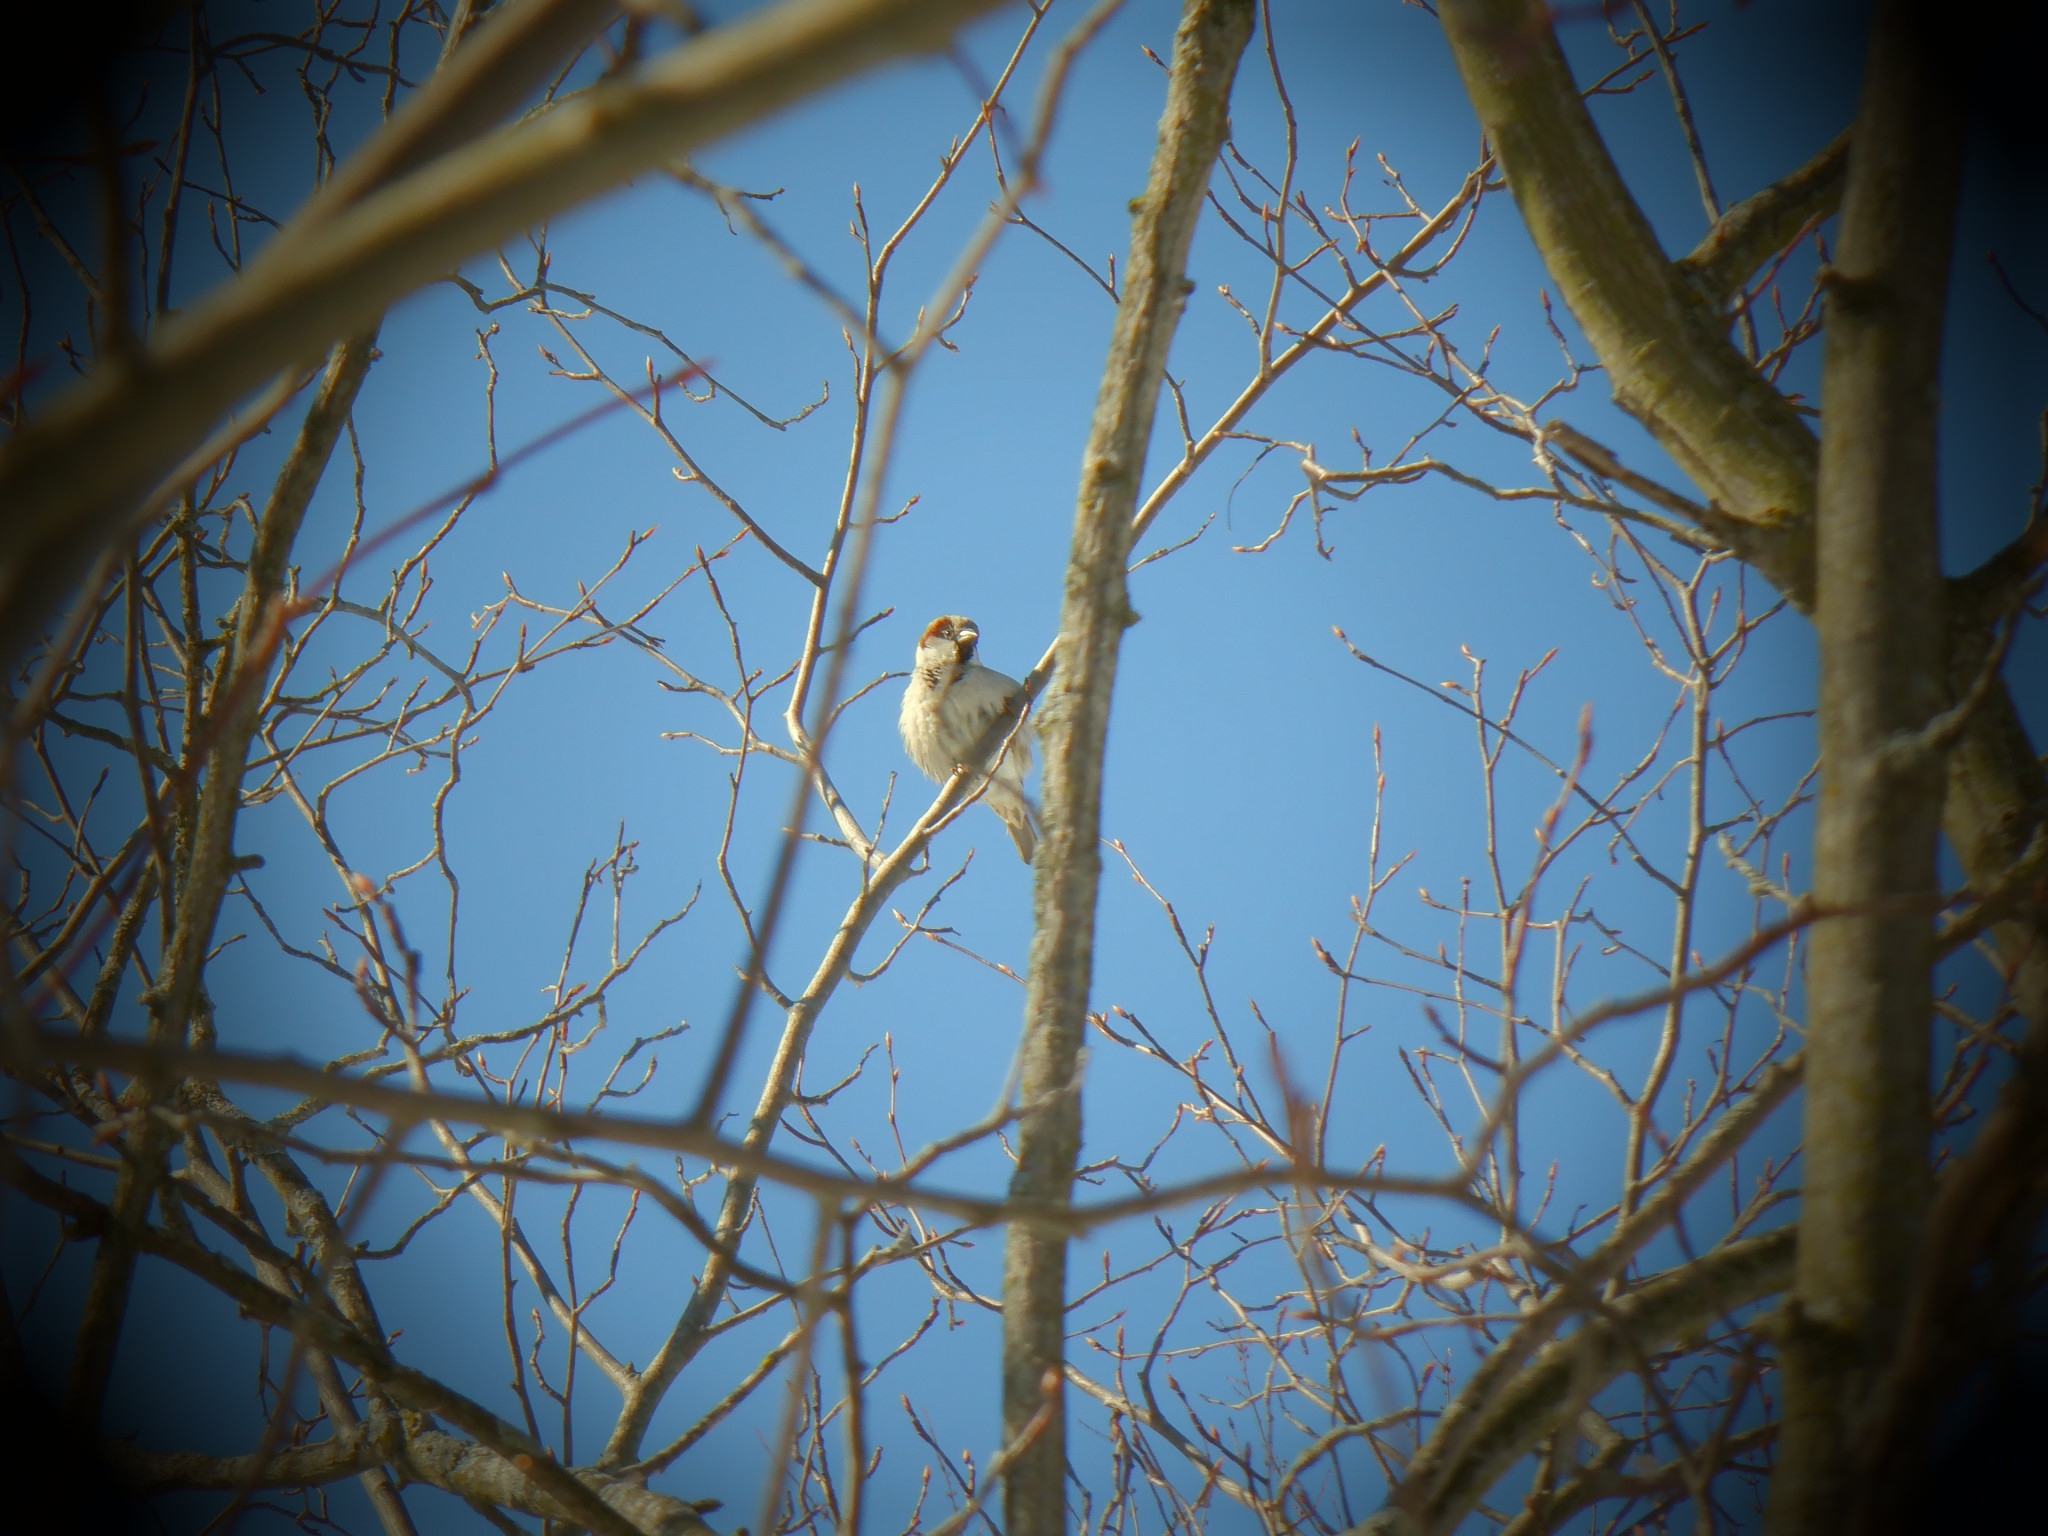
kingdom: Animalia
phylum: Chordata
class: Aves
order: Passeriformes
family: Passeridae
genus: Passer
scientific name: Passer domesticus
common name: House sparrow
